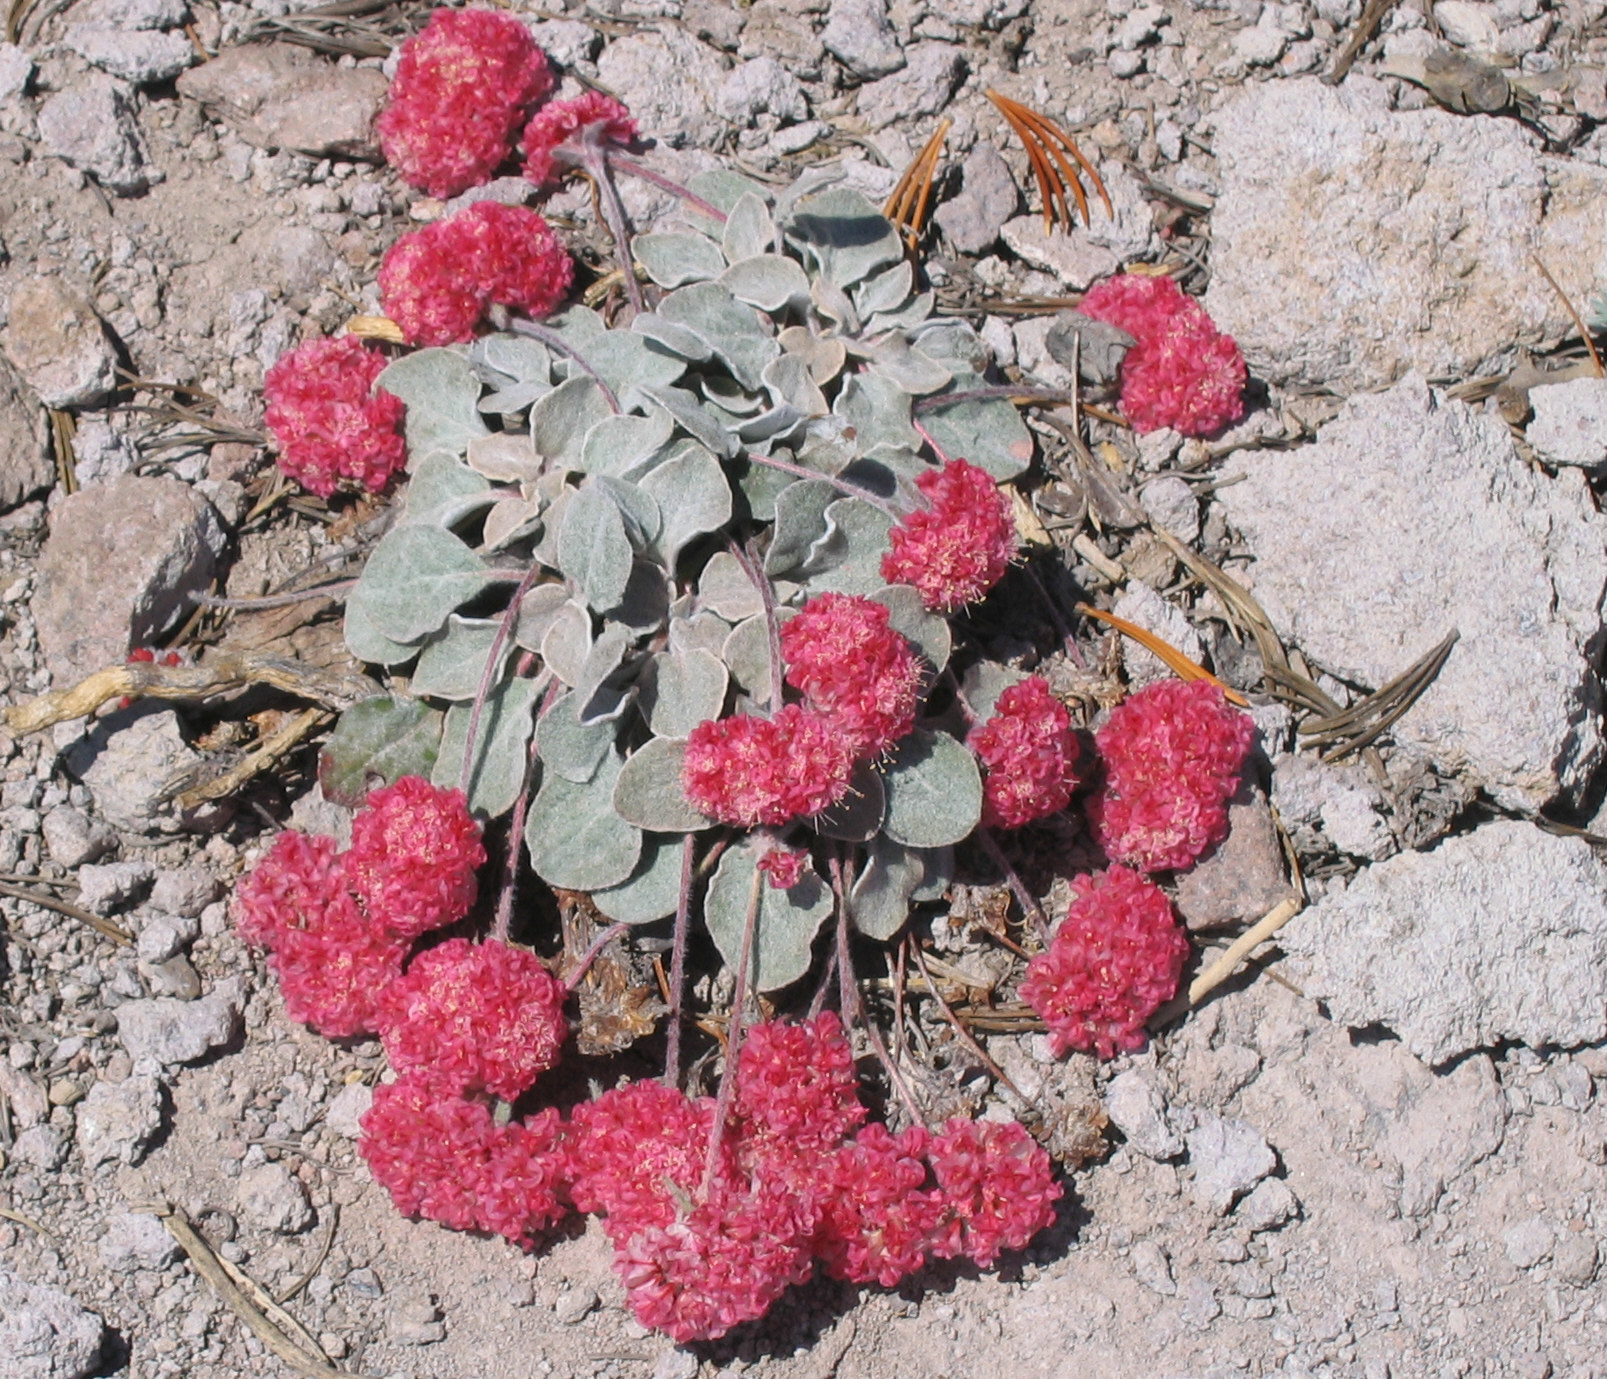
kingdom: Plantae
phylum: Tracheophyta
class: Magnoliopsida
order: Caryophyllales
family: Polygonaceae
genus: Eriogonum
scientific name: Eriogonum lobbii
